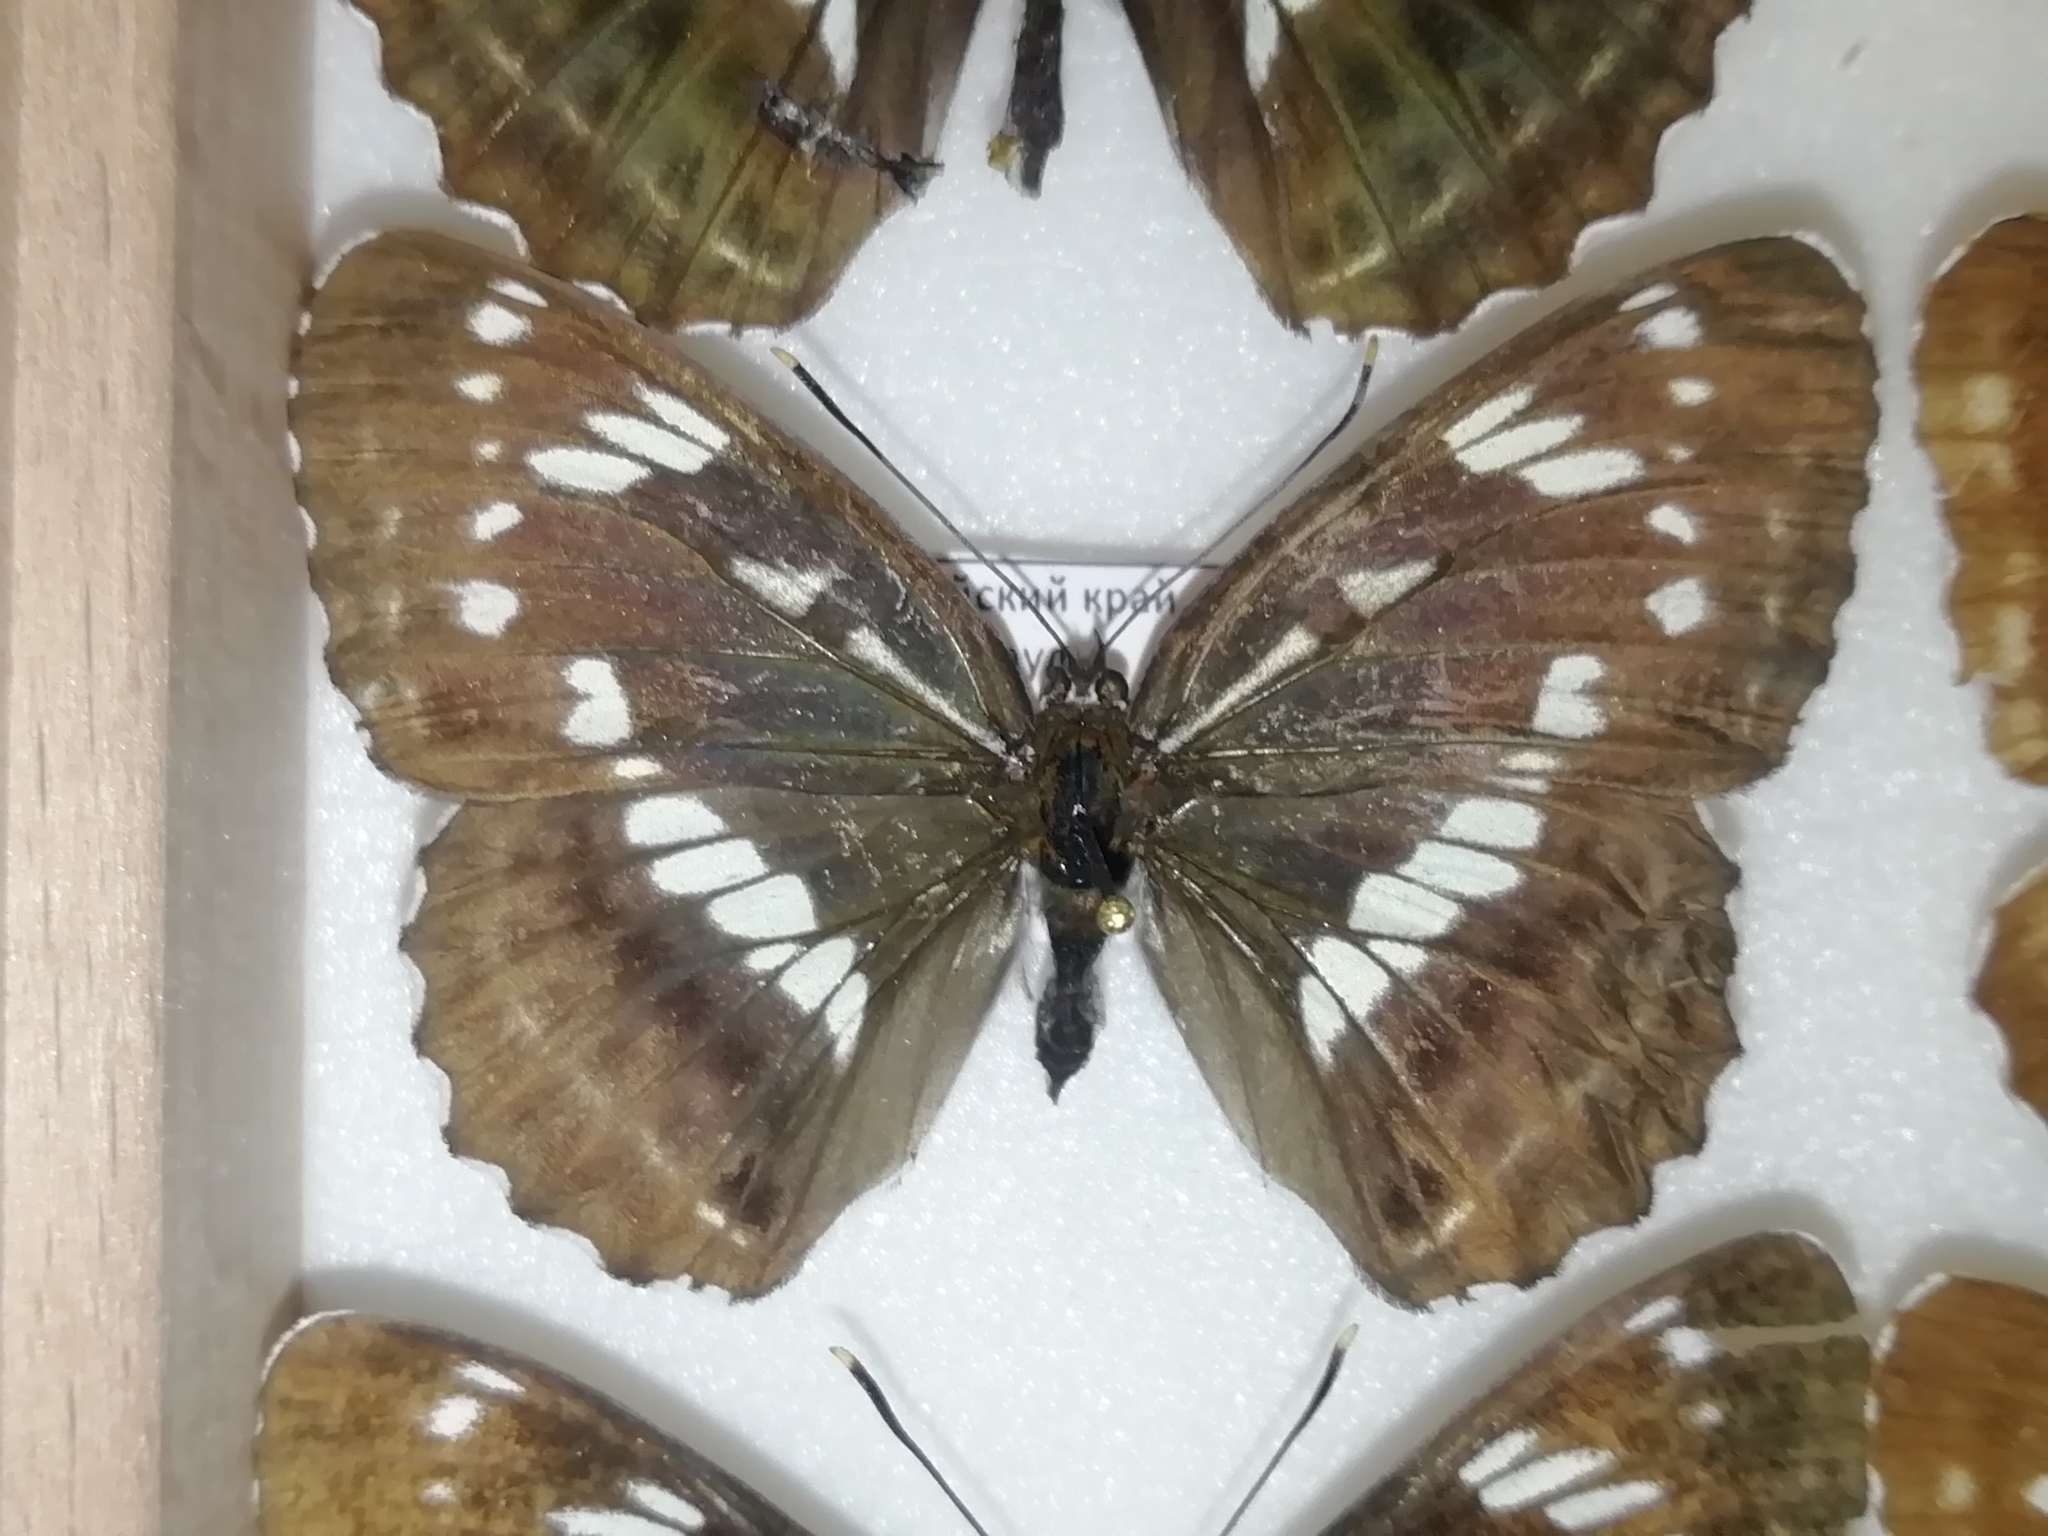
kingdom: Animalia
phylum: Arthropoda
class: Insecta
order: Lepidoptera
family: Nymphalidae
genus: Limenitis
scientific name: Limenitis helmanni
